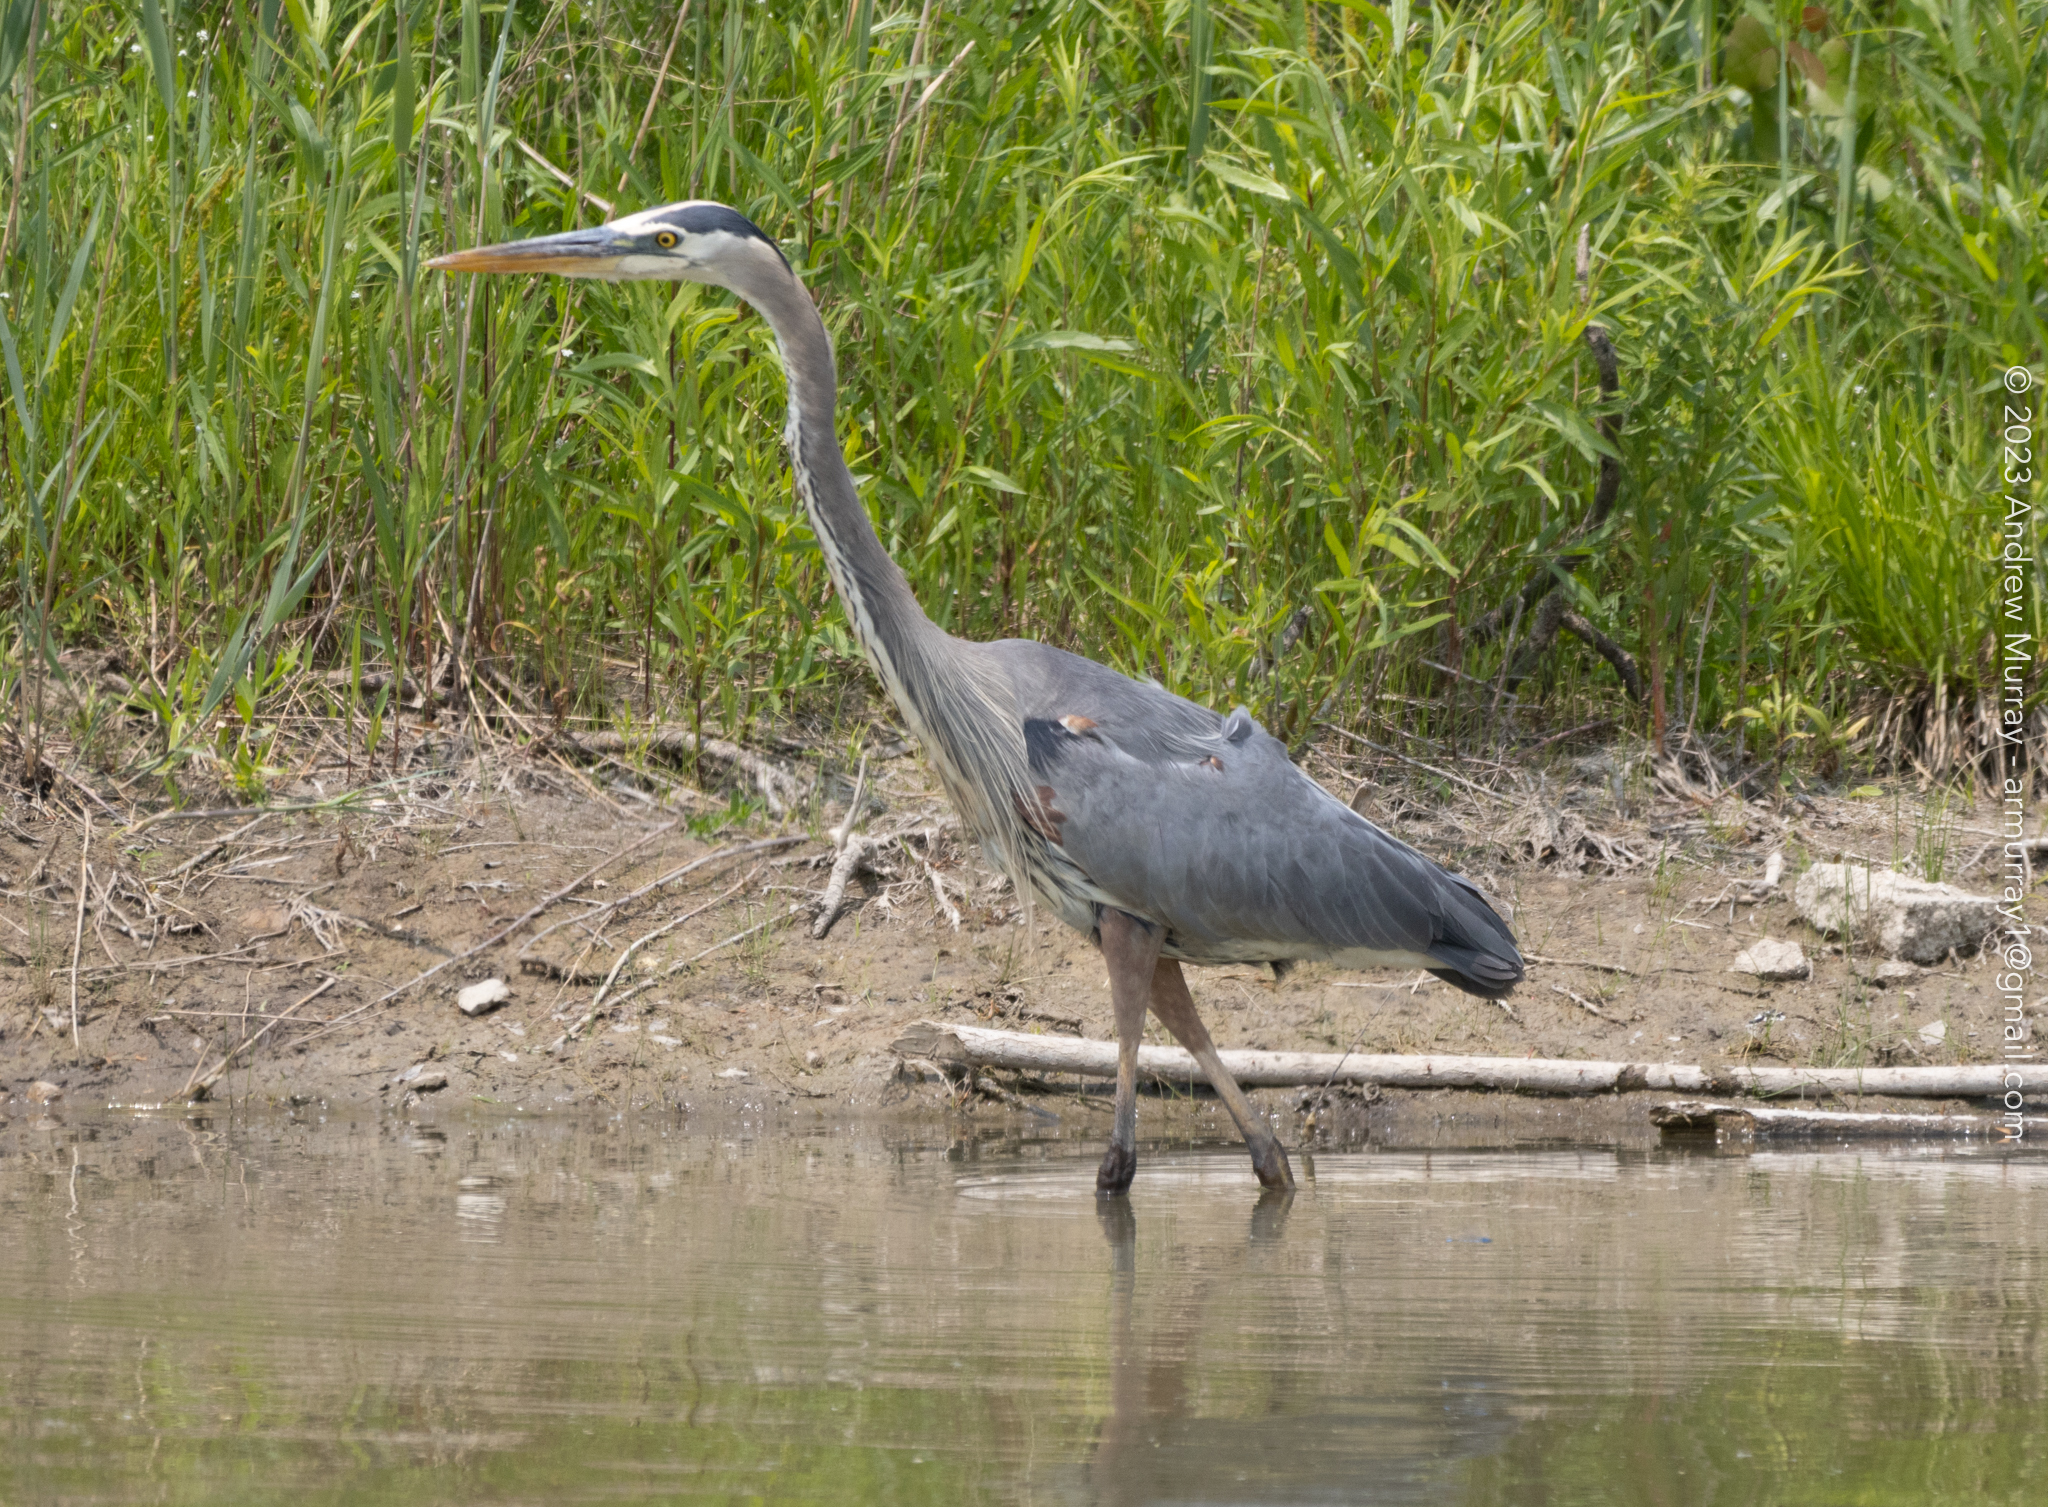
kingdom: Animalia
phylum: Chordata
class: Aves
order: Pelecaniformes
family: Ardeidae
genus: Ardea
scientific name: Ardea herodias
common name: Great blue heron
